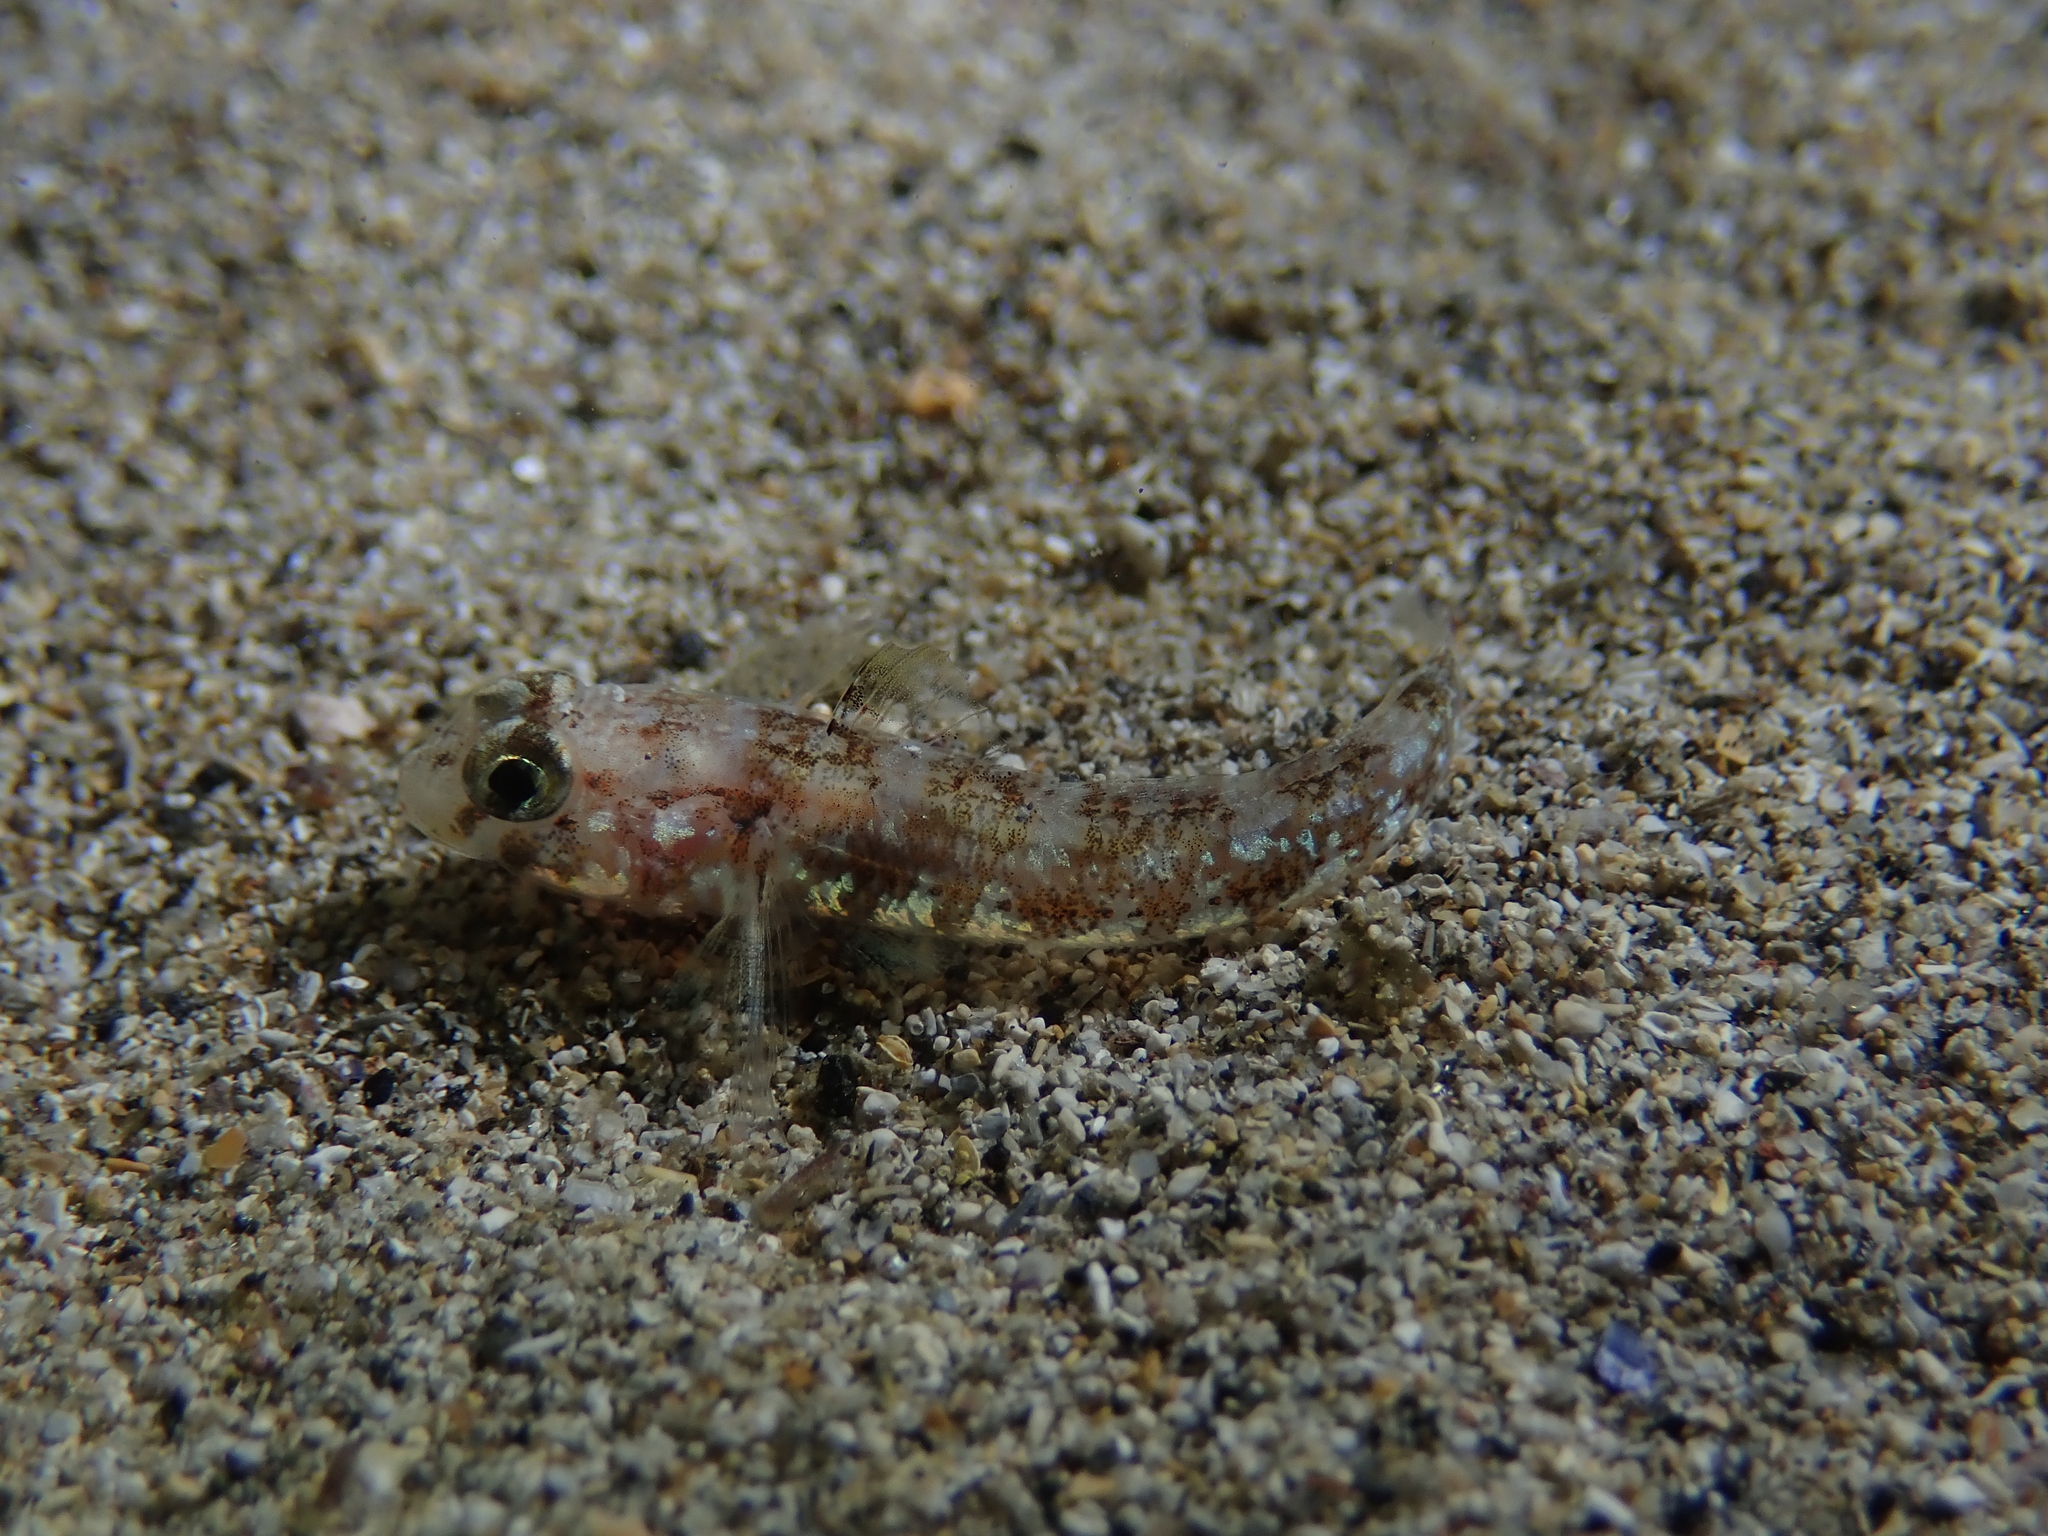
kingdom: Animalia
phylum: Chordata
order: Perciformes
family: Gobiidae
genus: Gobius
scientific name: Gobius roulei
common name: Roule's goby
